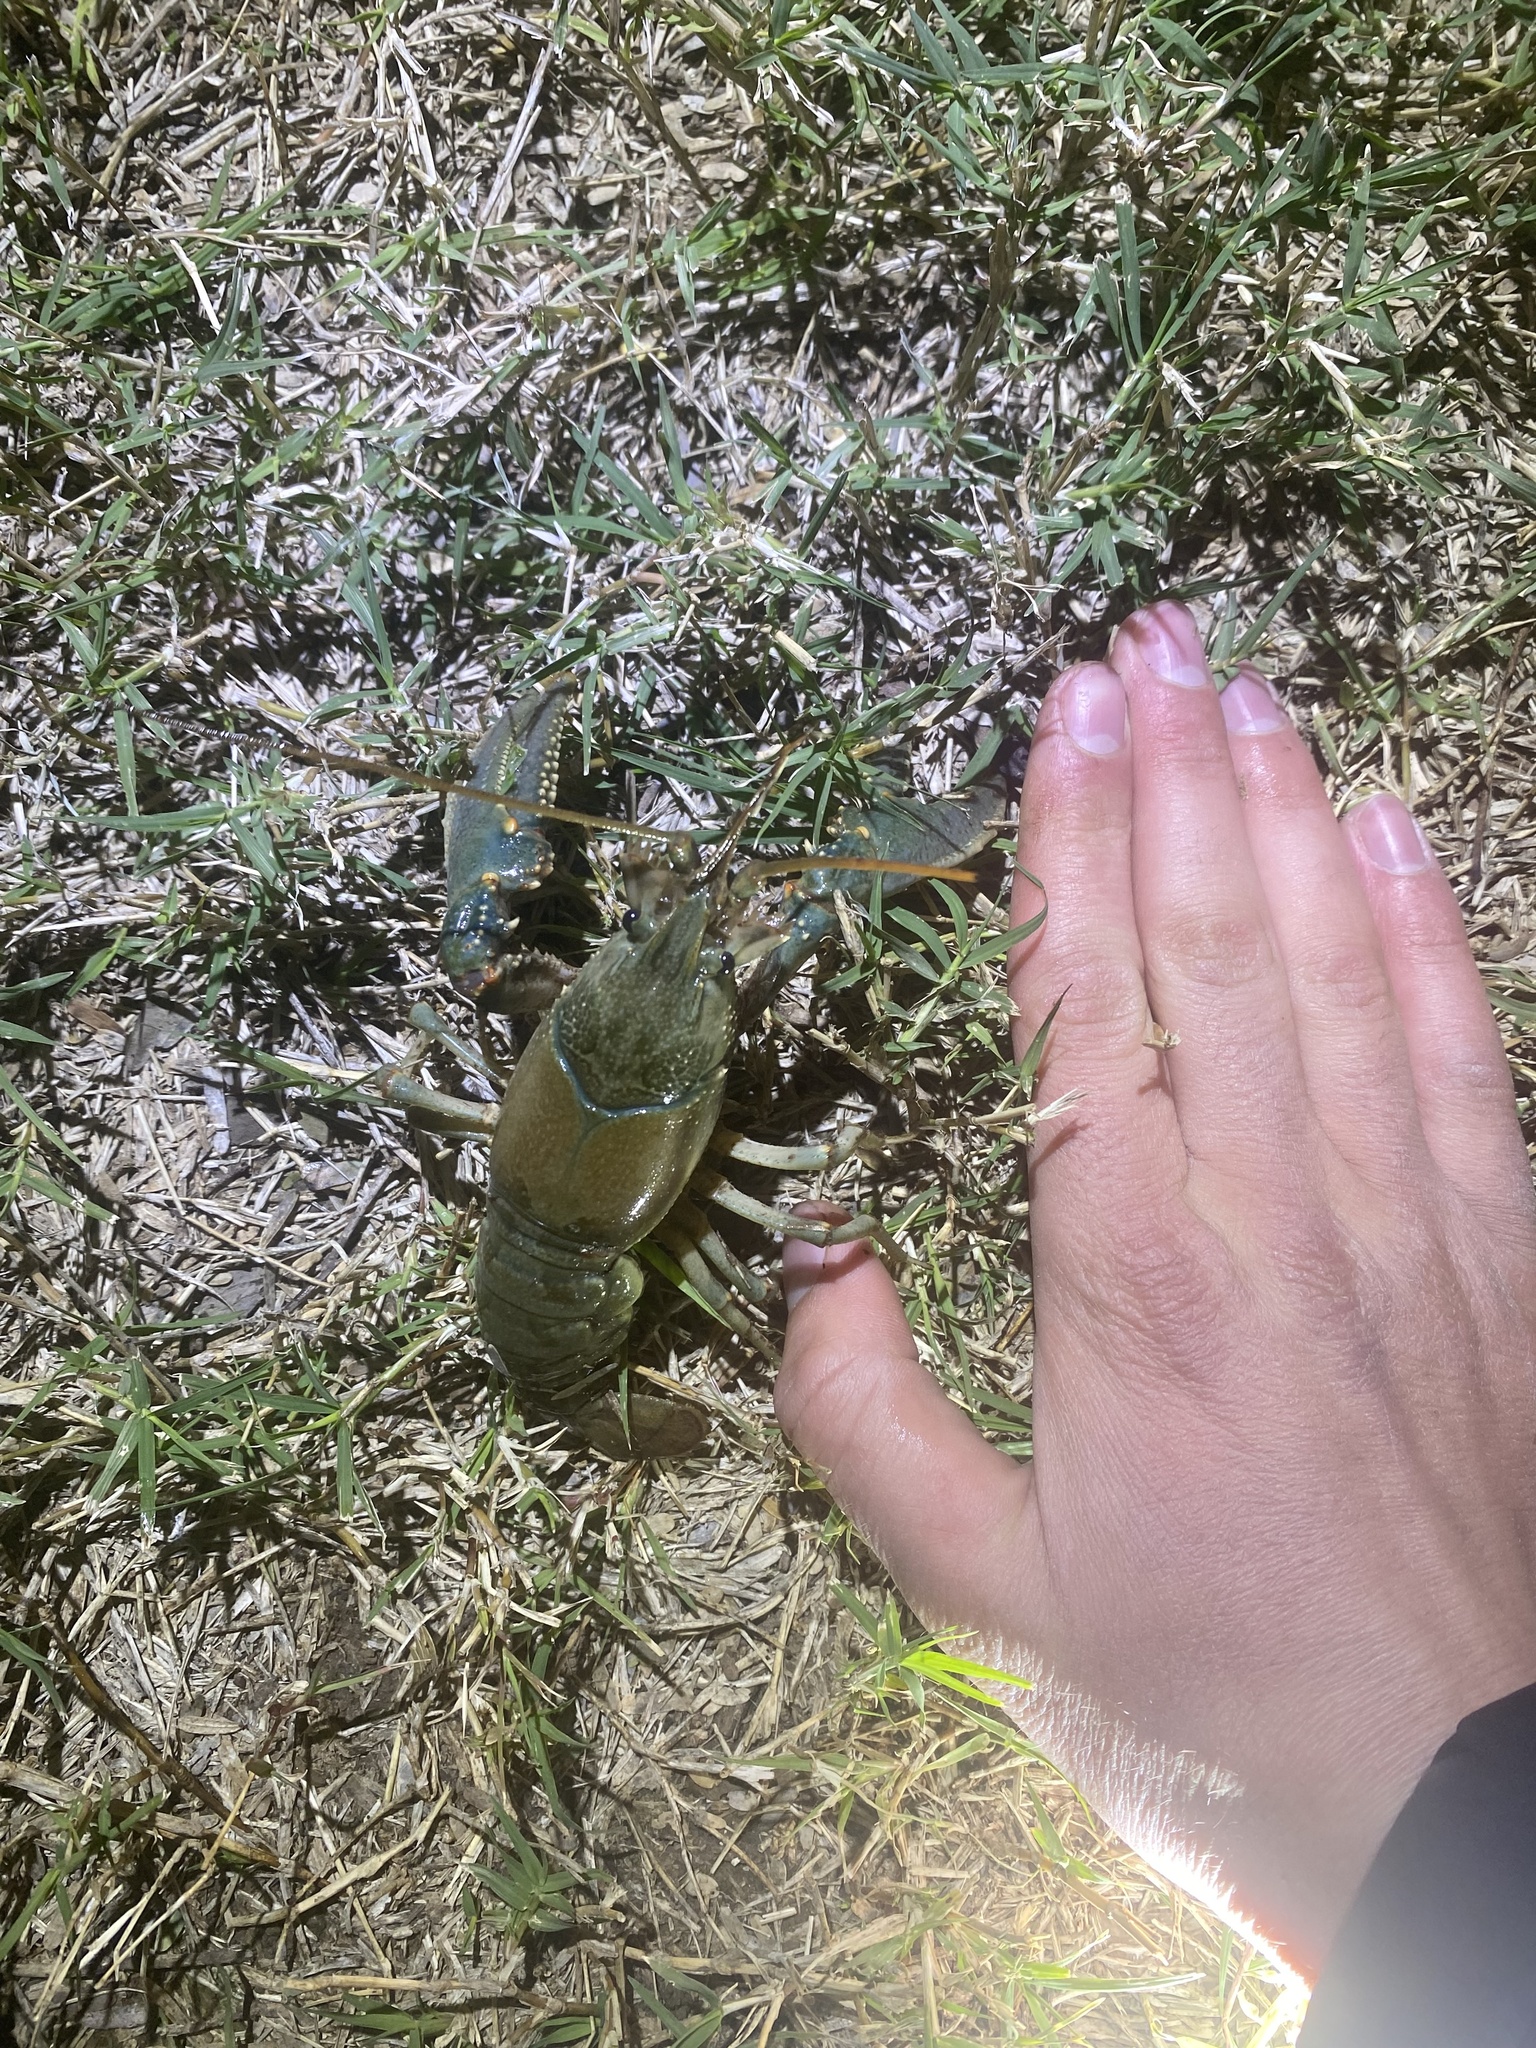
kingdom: Animalia
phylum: Arthropoda
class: Malacostraca
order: Decapoda
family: Cambaridae
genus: Faxonius
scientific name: Faxonius virilis
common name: Virile crayfish
